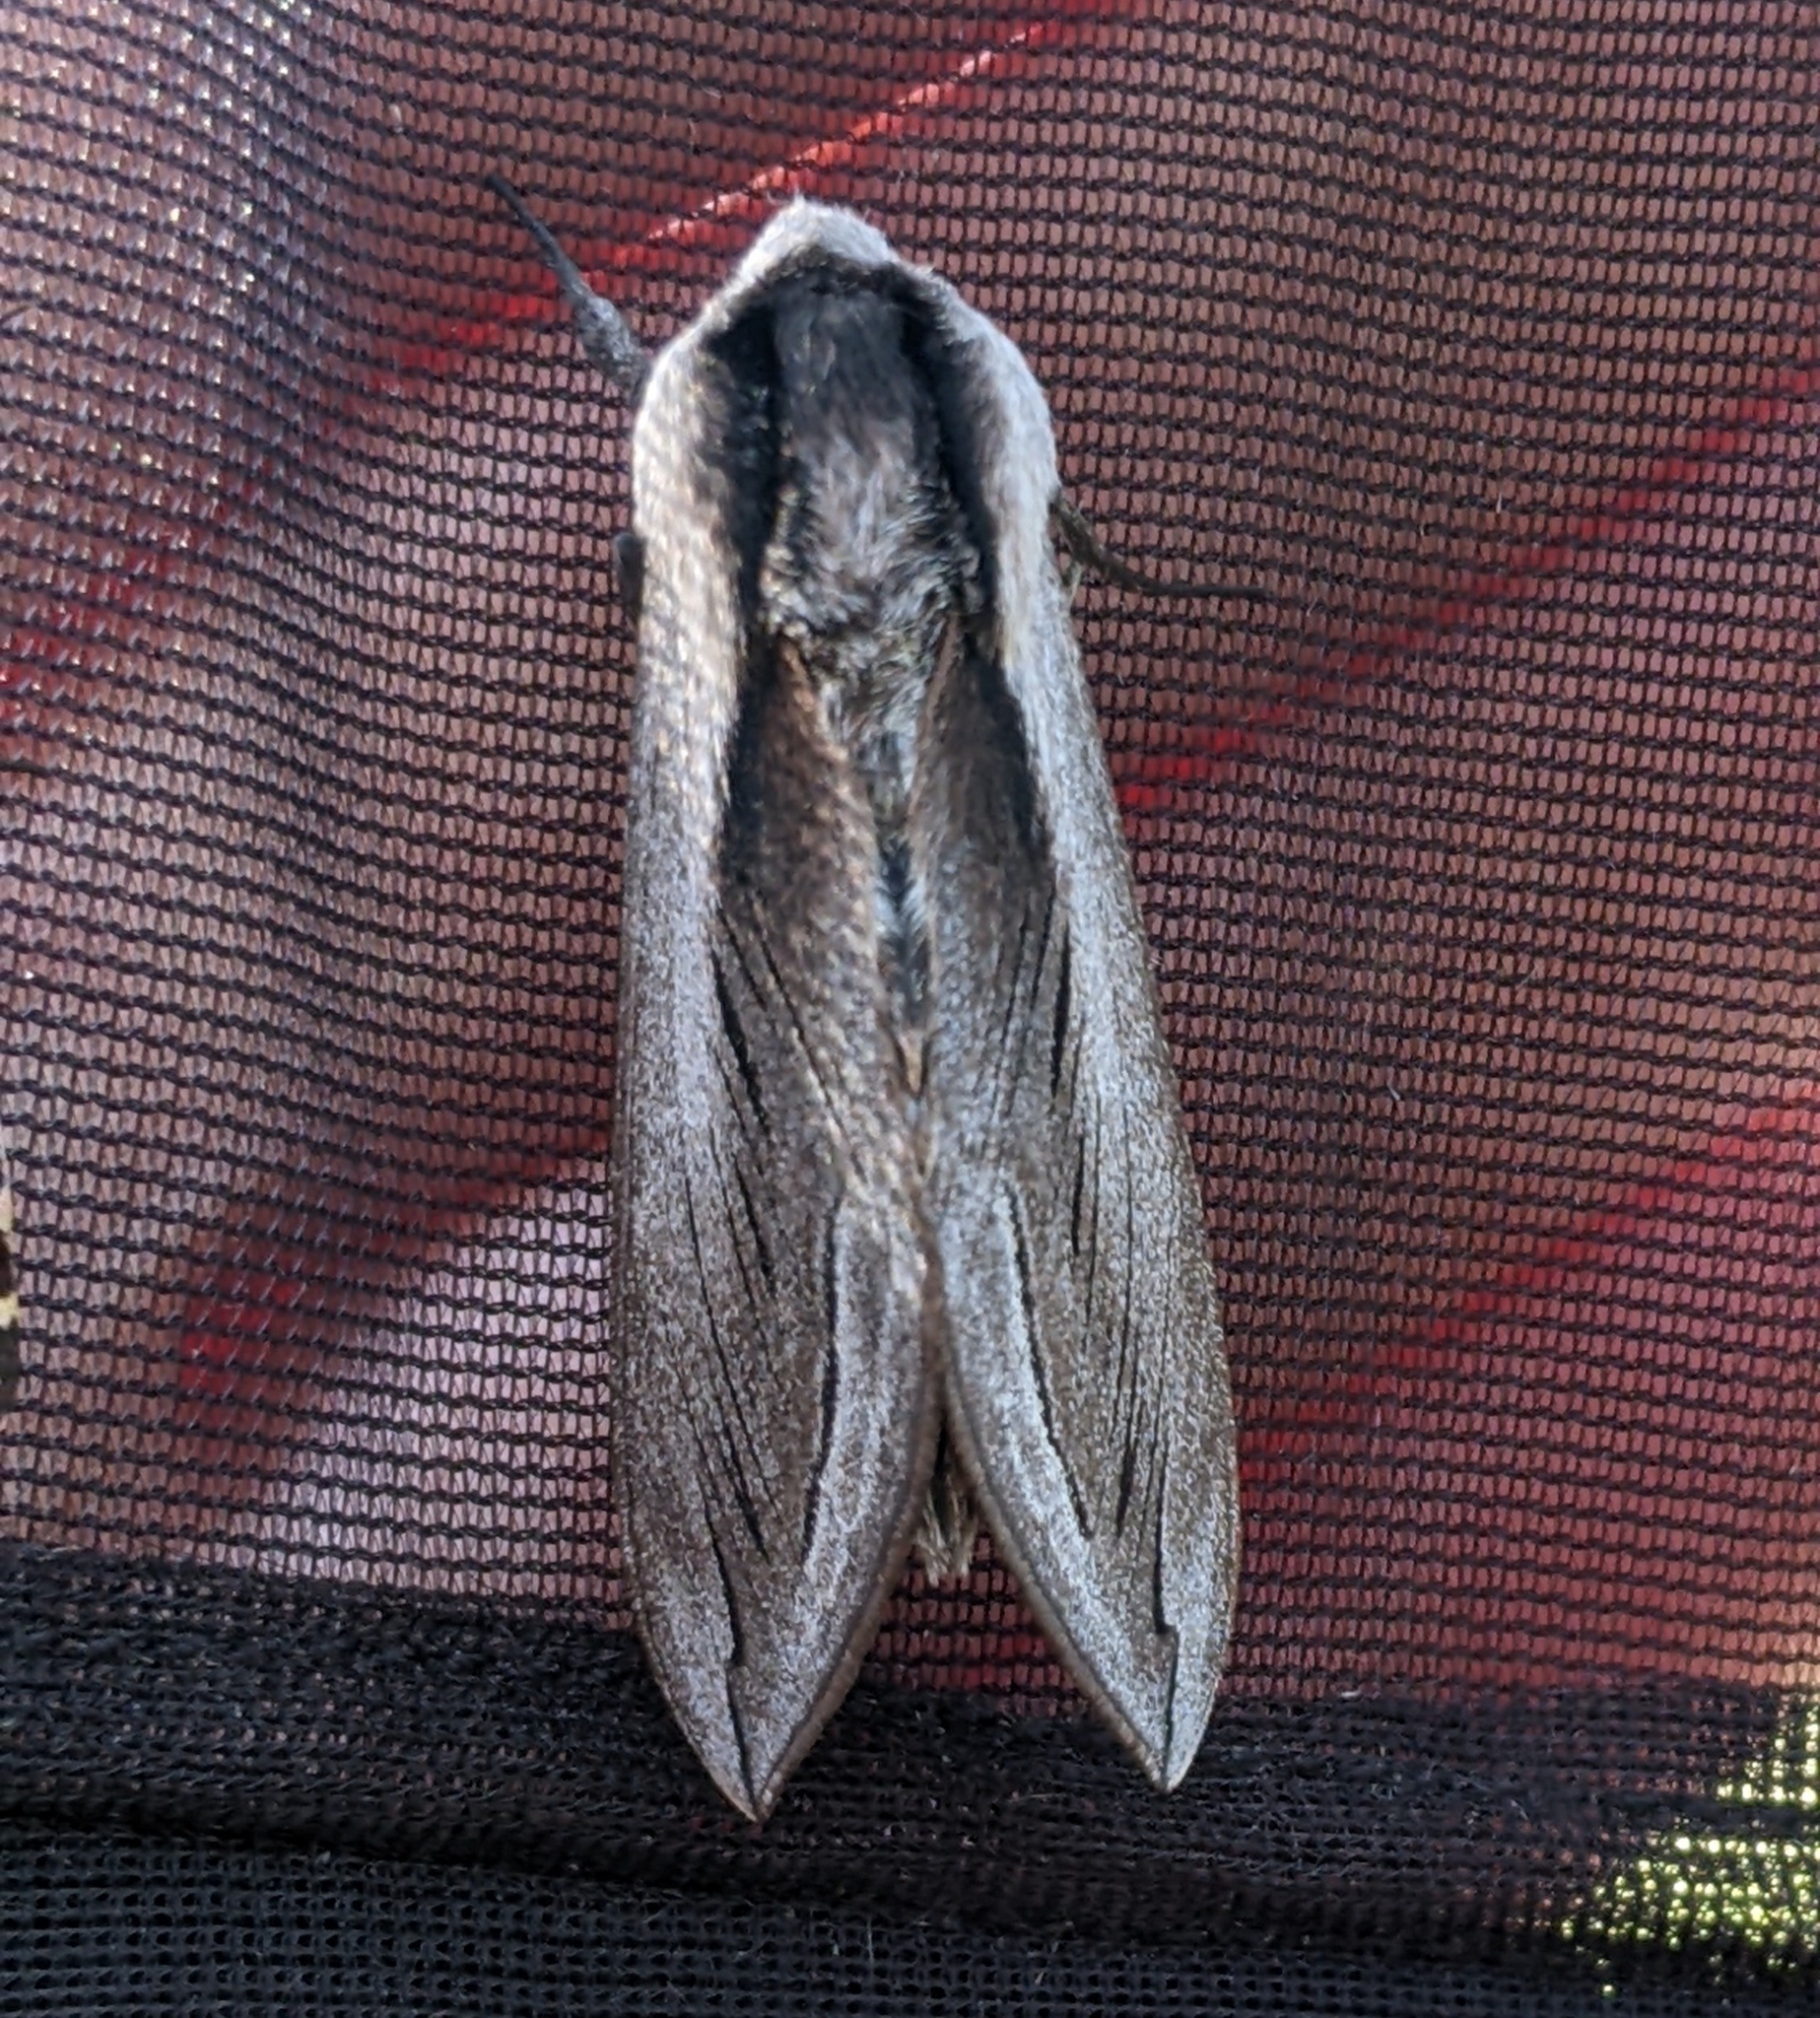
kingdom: Animalia
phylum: Arthropoda
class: Insecta
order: Lepidoptera
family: Sphingidae
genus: Sphinx
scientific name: Sphinx vashti
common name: Snowberry sphinx
